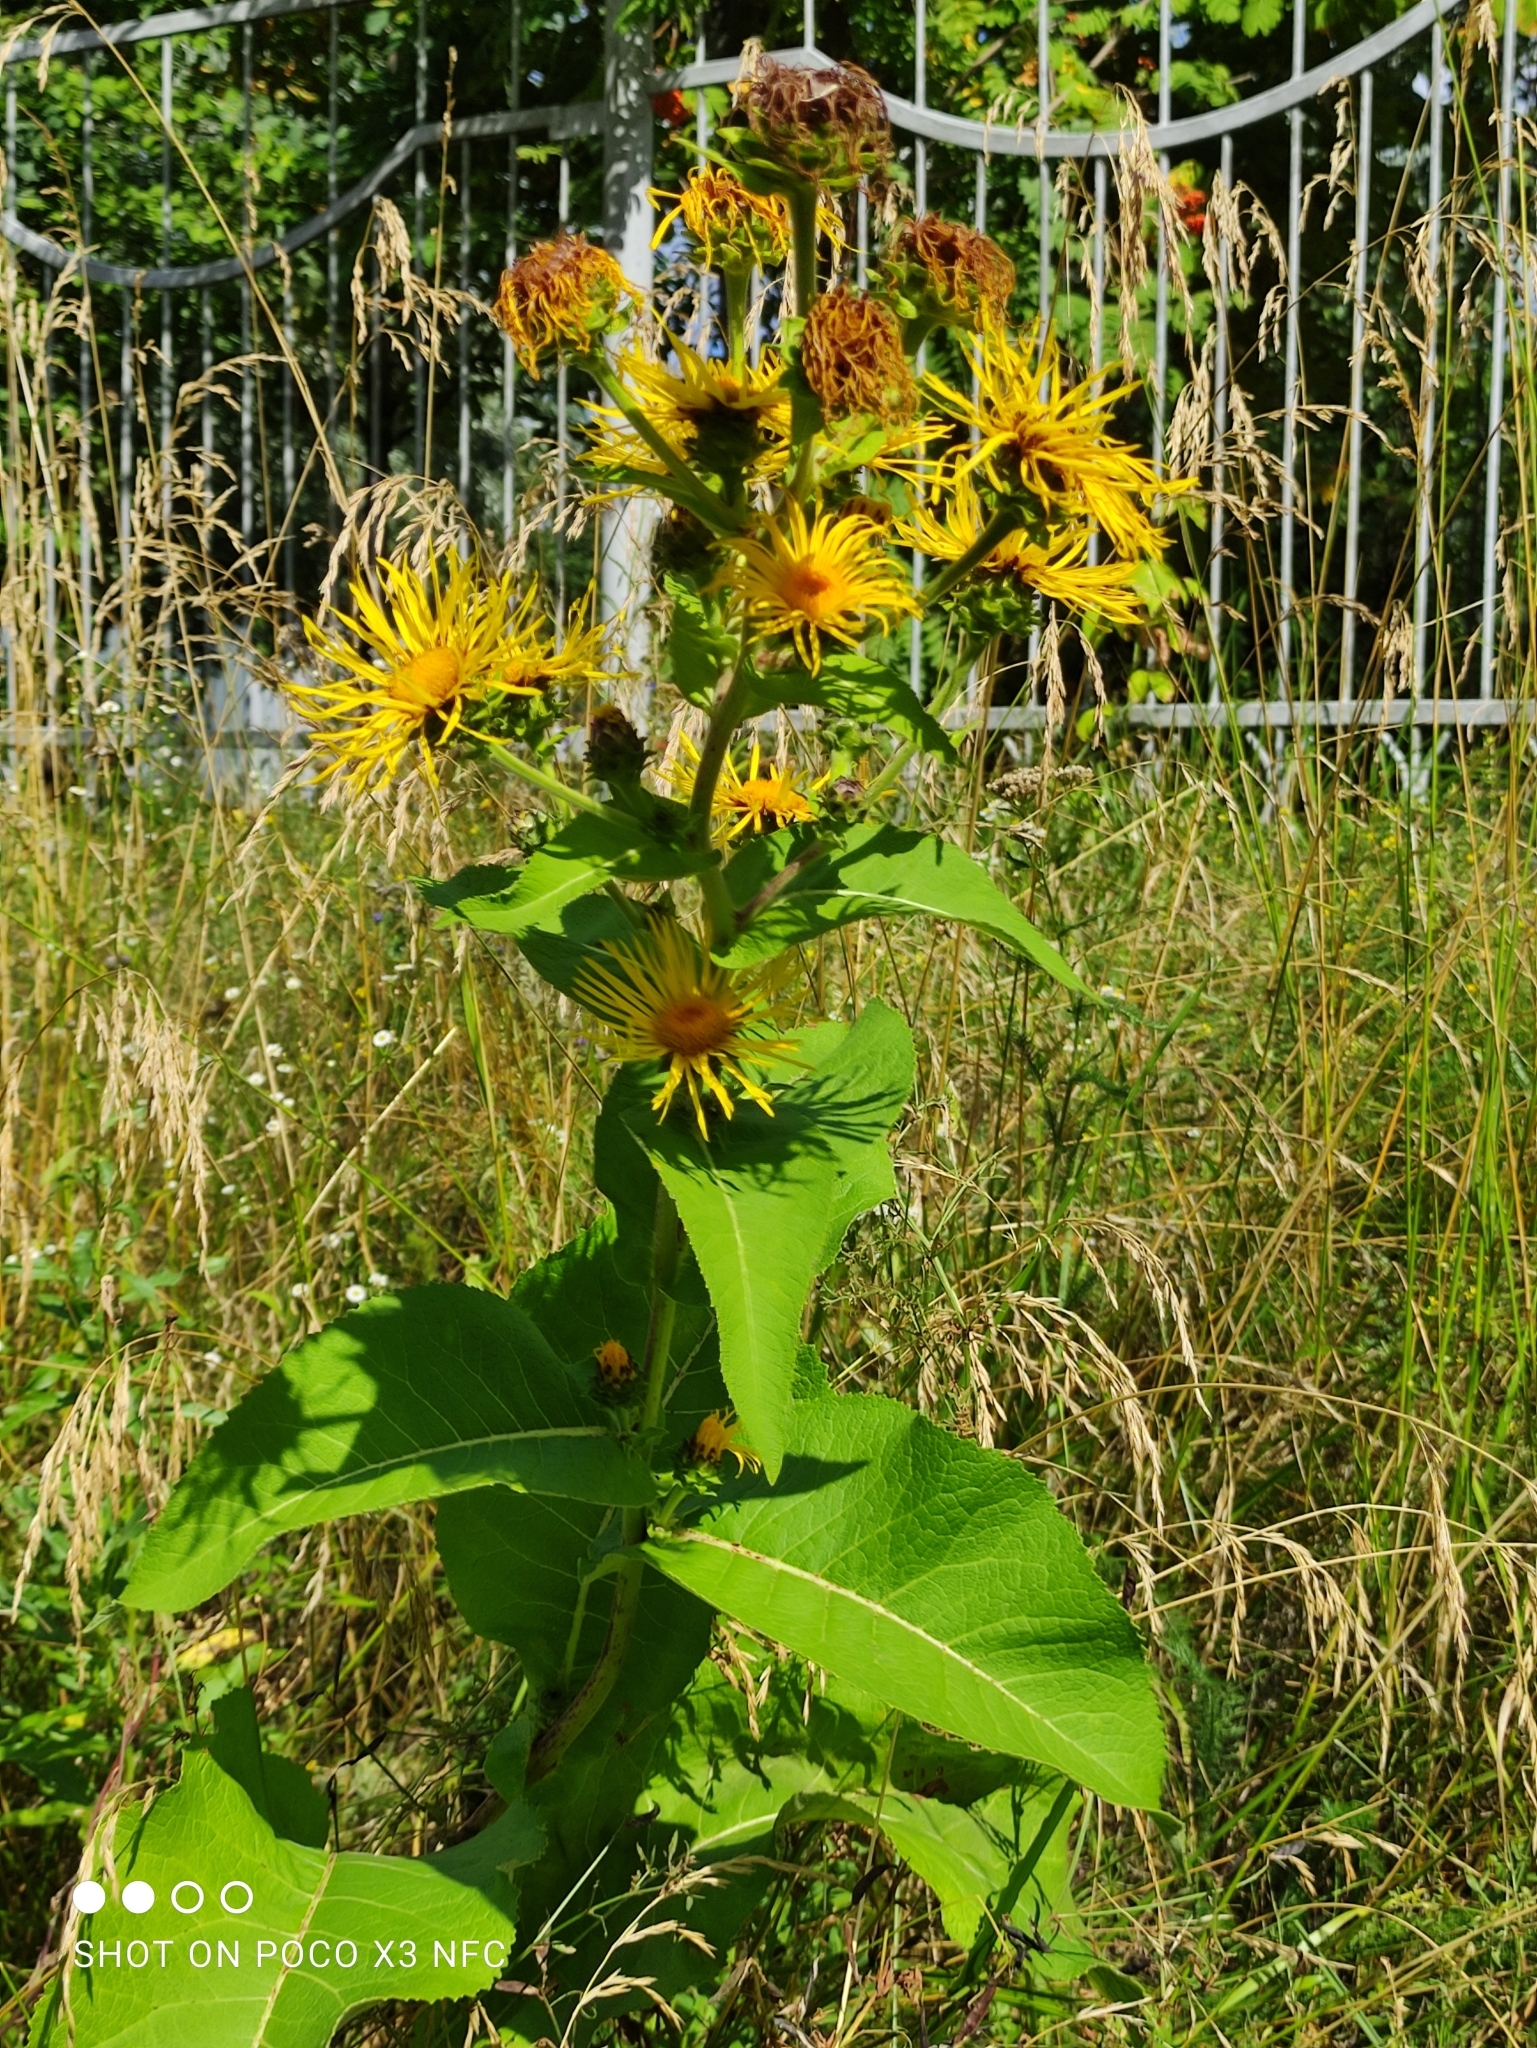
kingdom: Plantae
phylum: Tracheophyta
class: Magnoliopsida
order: Asterales
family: Asteraceae
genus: Inula
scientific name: Inula helenium
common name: Elecampane
